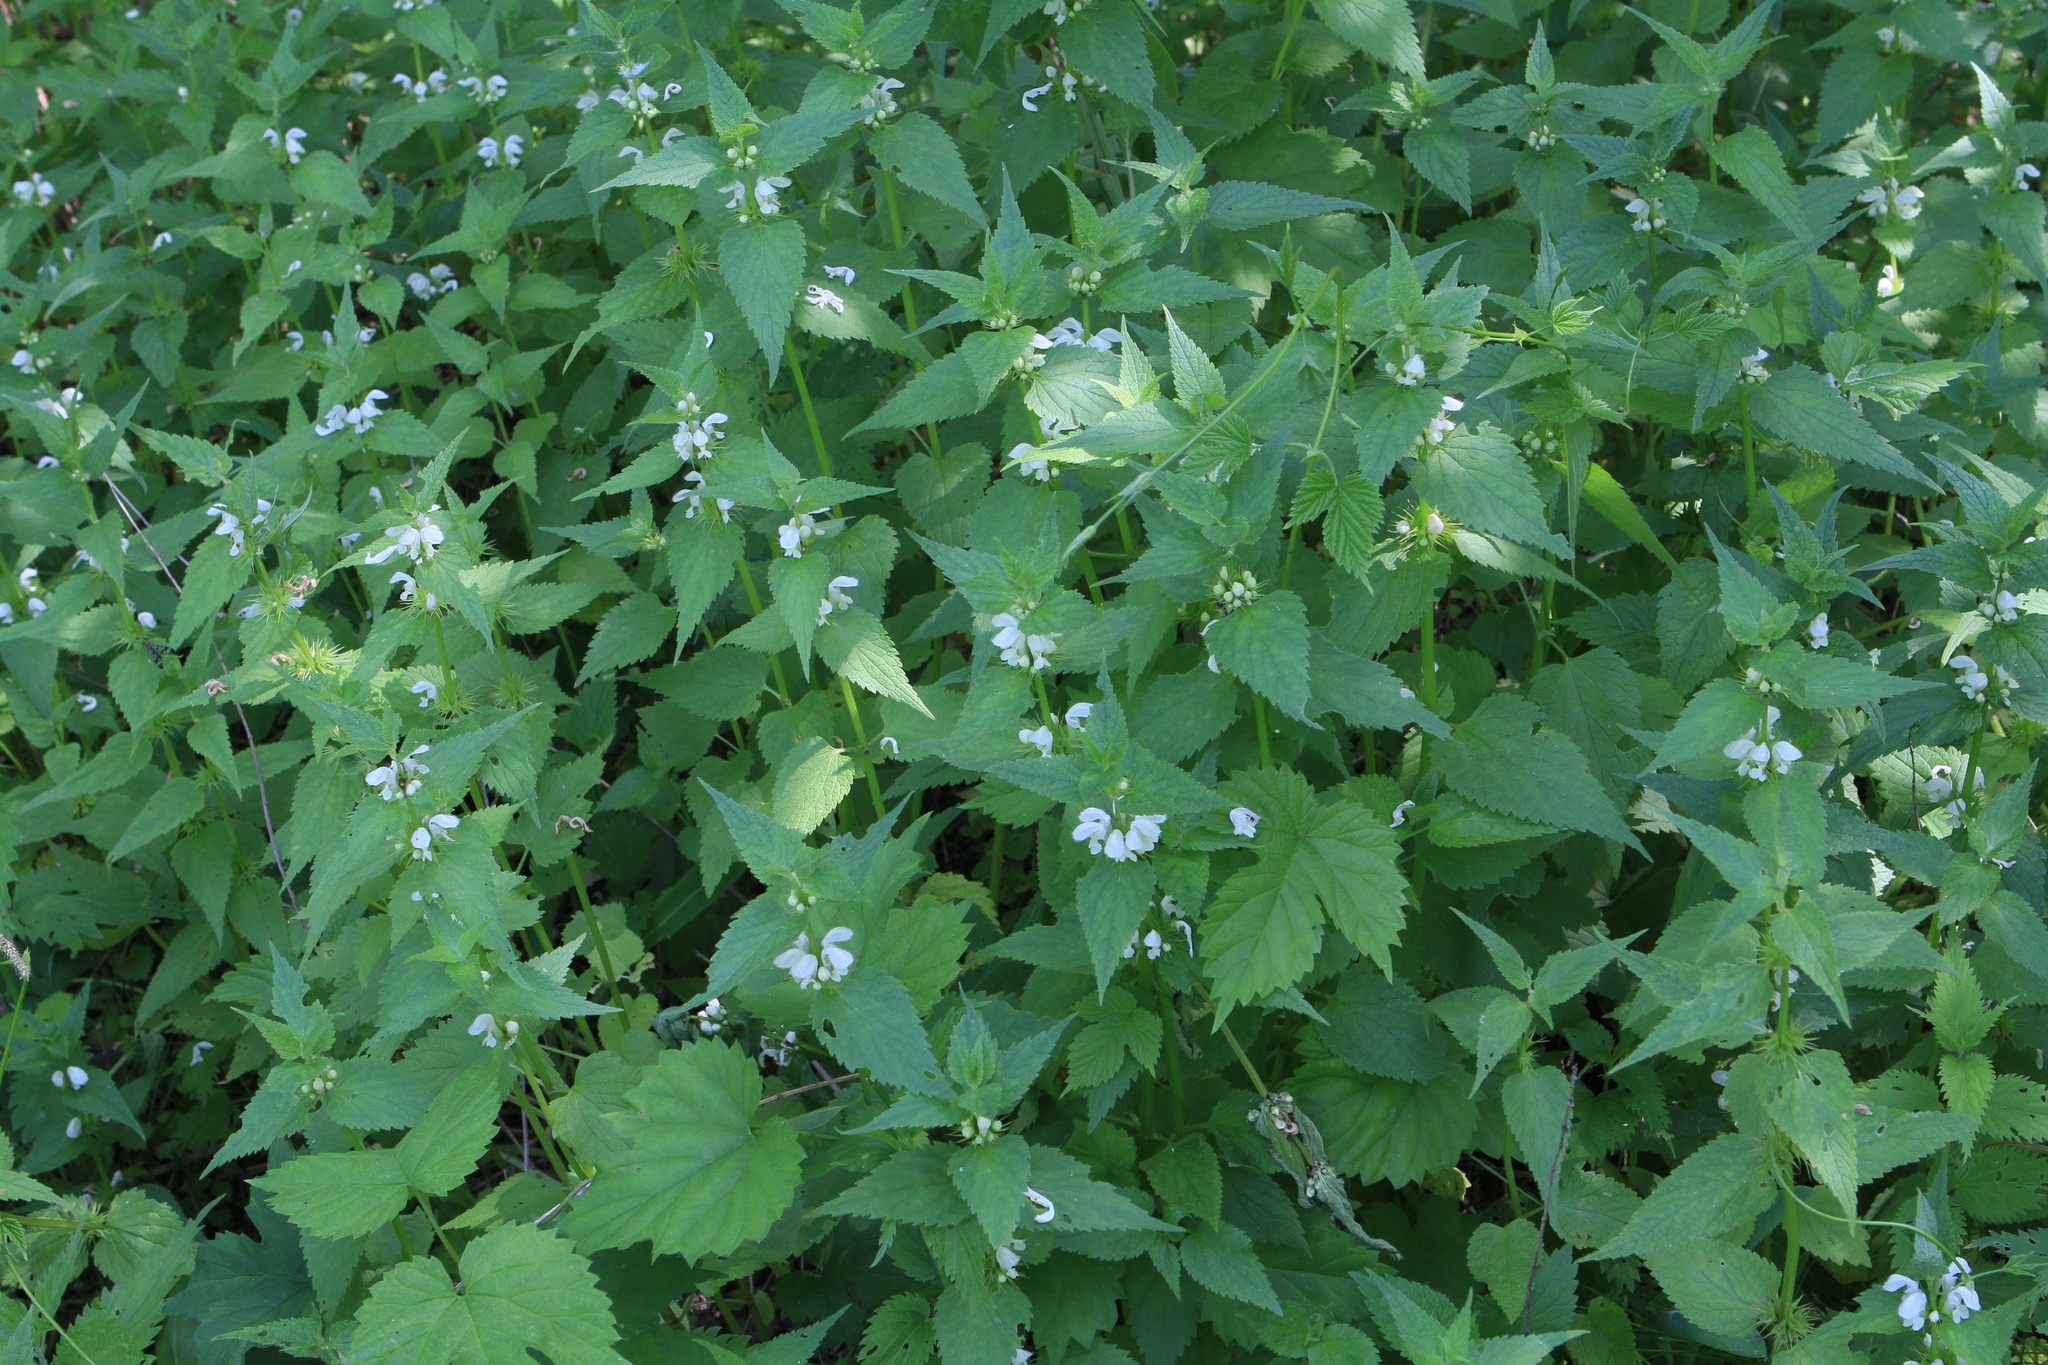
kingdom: Plantae
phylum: Tracheophyta
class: Magnoliopsida
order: Lamiales
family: Lamiaceae
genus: Lamium
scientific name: Lamium album
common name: White dead-nettle
